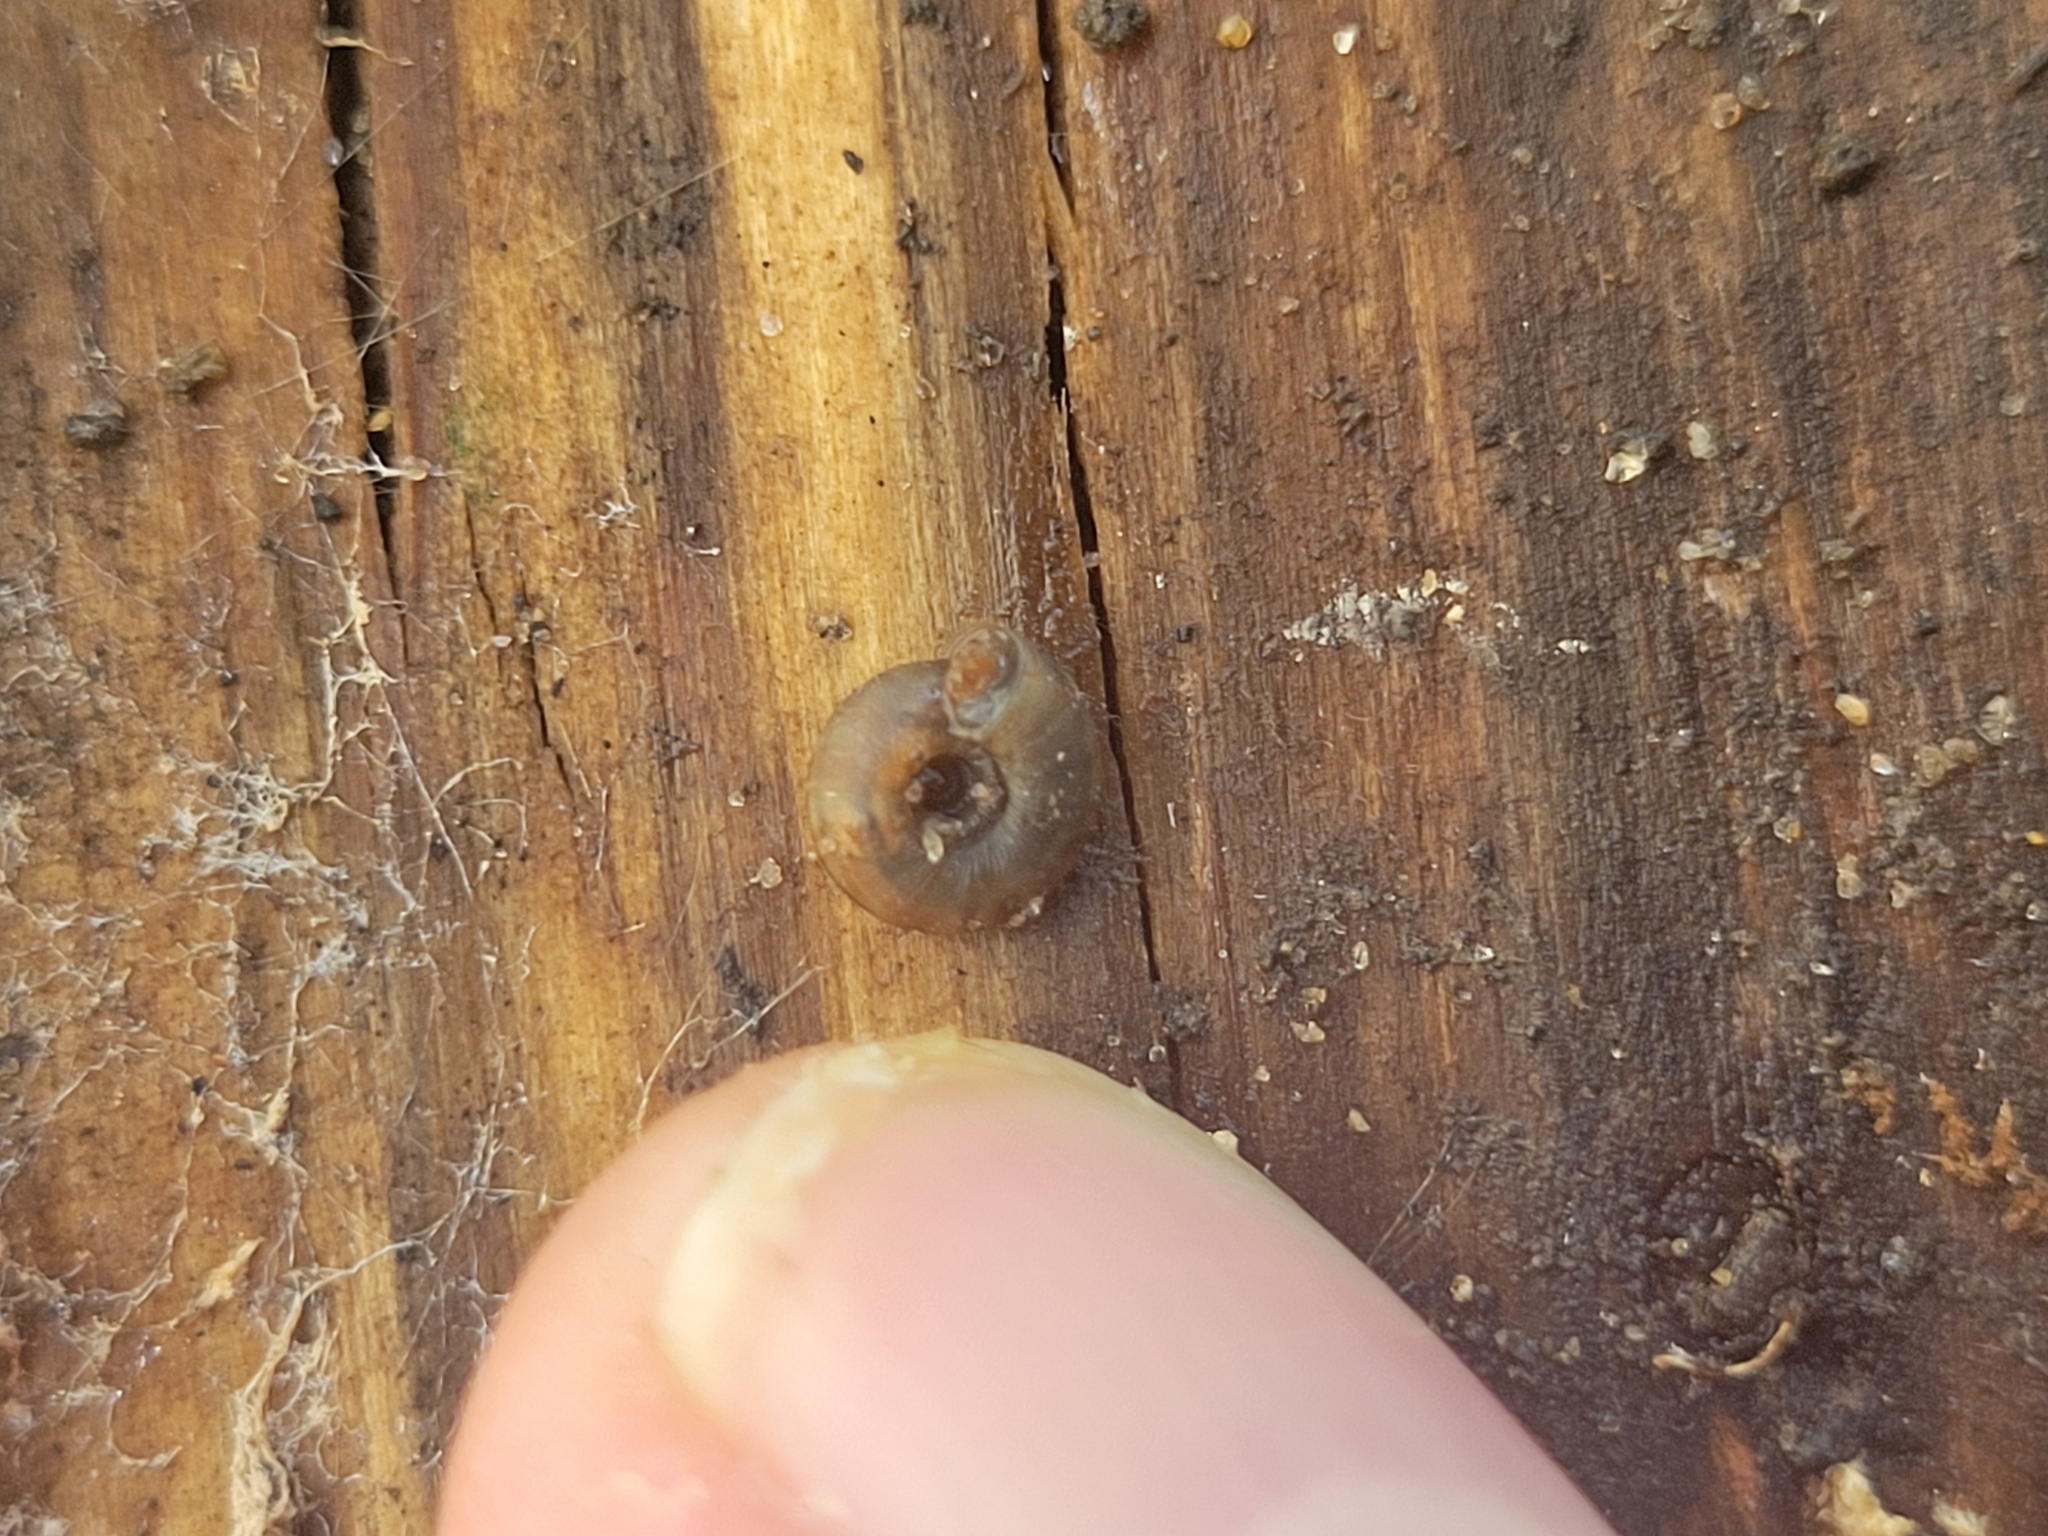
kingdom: Animalia
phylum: Mollusca
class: Gastropoda
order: Stylommatophora
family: Discidae
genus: Discus
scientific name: Discus rotundatus
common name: Rounded snail
